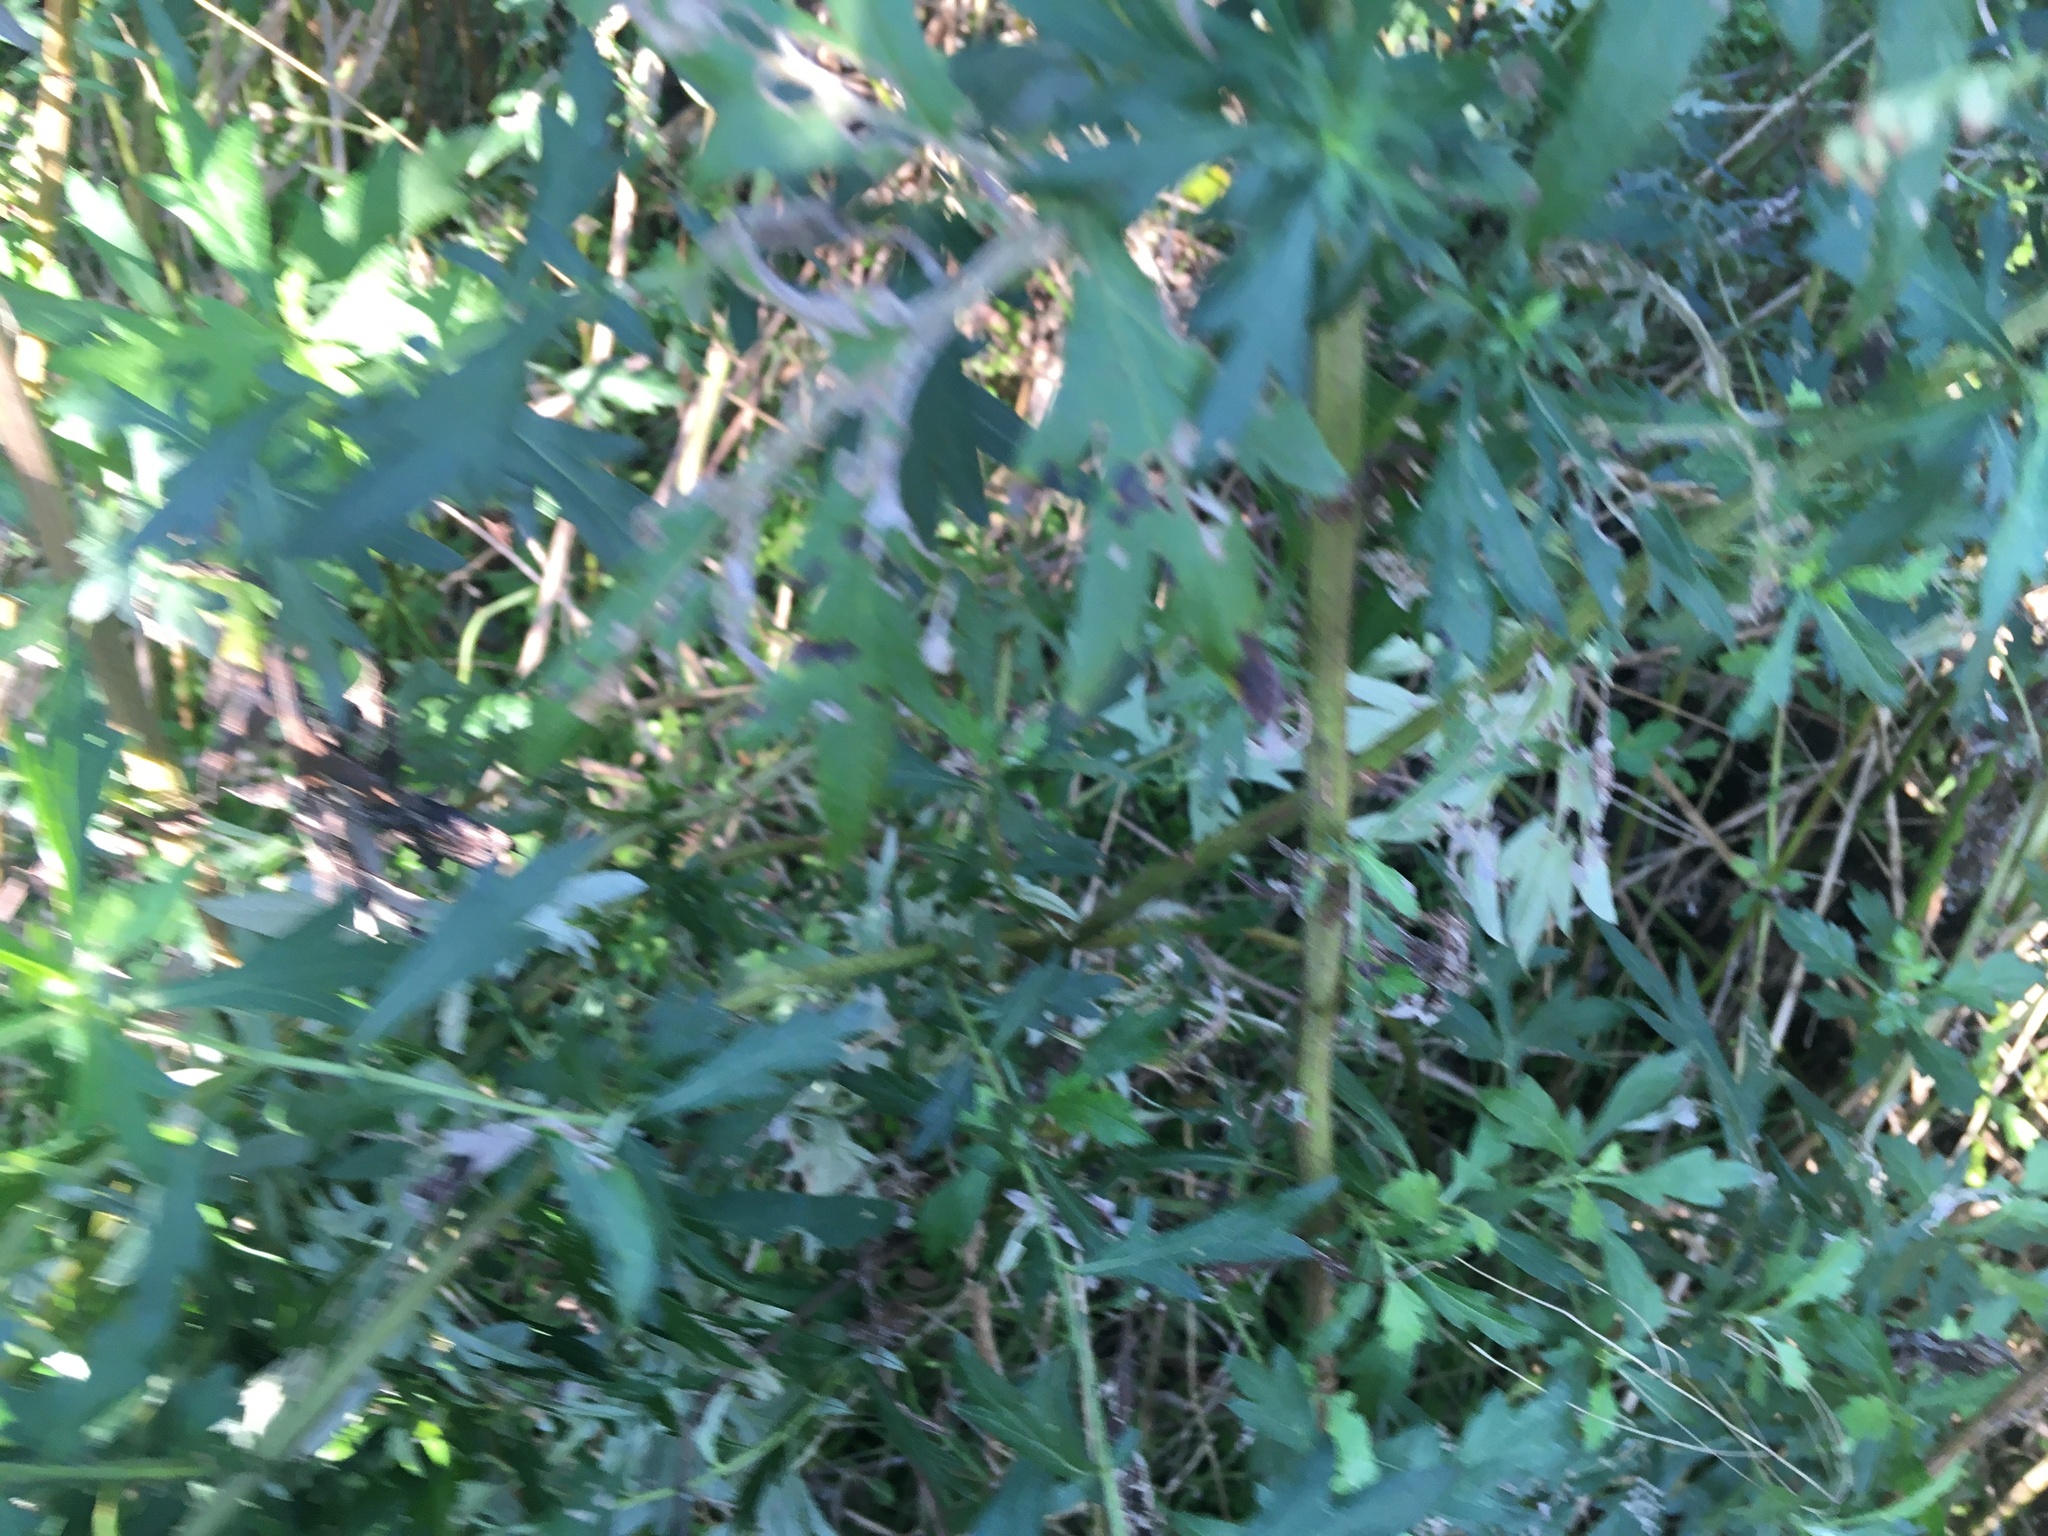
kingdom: Plantae
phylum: Tracheophyta
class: Magnoliopsida
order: Asterales
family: Asteraceae
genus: Artemisia
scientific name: Artemisia vulgaris
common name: Mugwort
